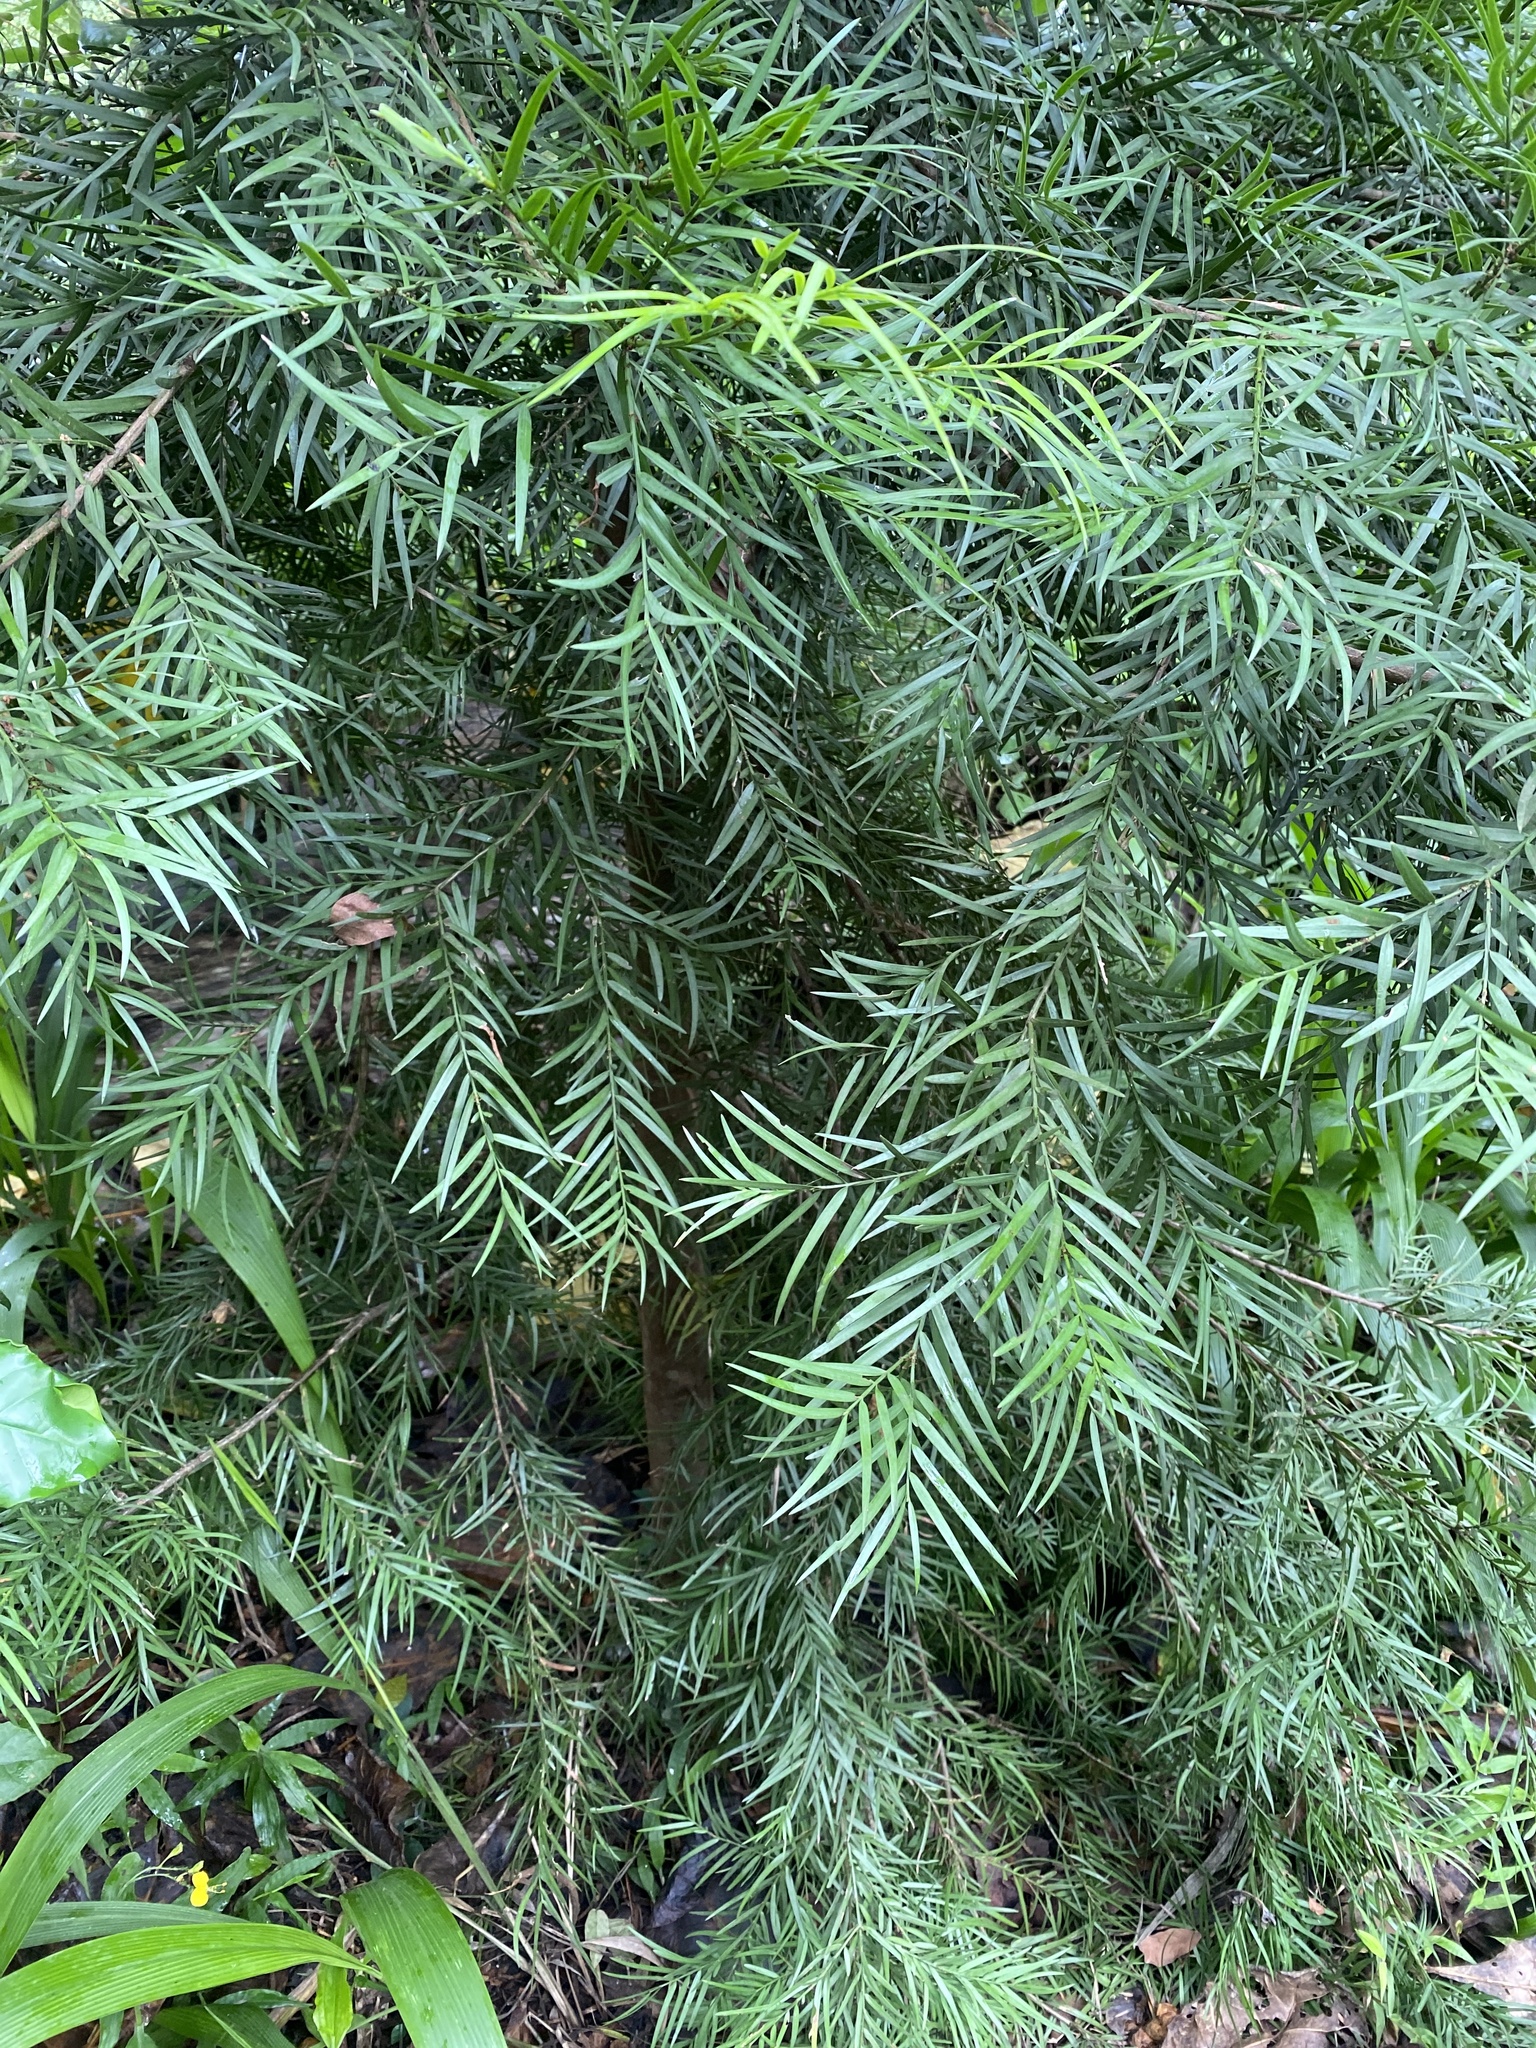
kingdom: Plantae
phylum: Tracheophyta
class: Pinopsida
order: Pinales
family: Podocarpaceae
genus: Afrocarpus
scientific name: Afrocarpus falcatus
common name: Bastard yellowwood
